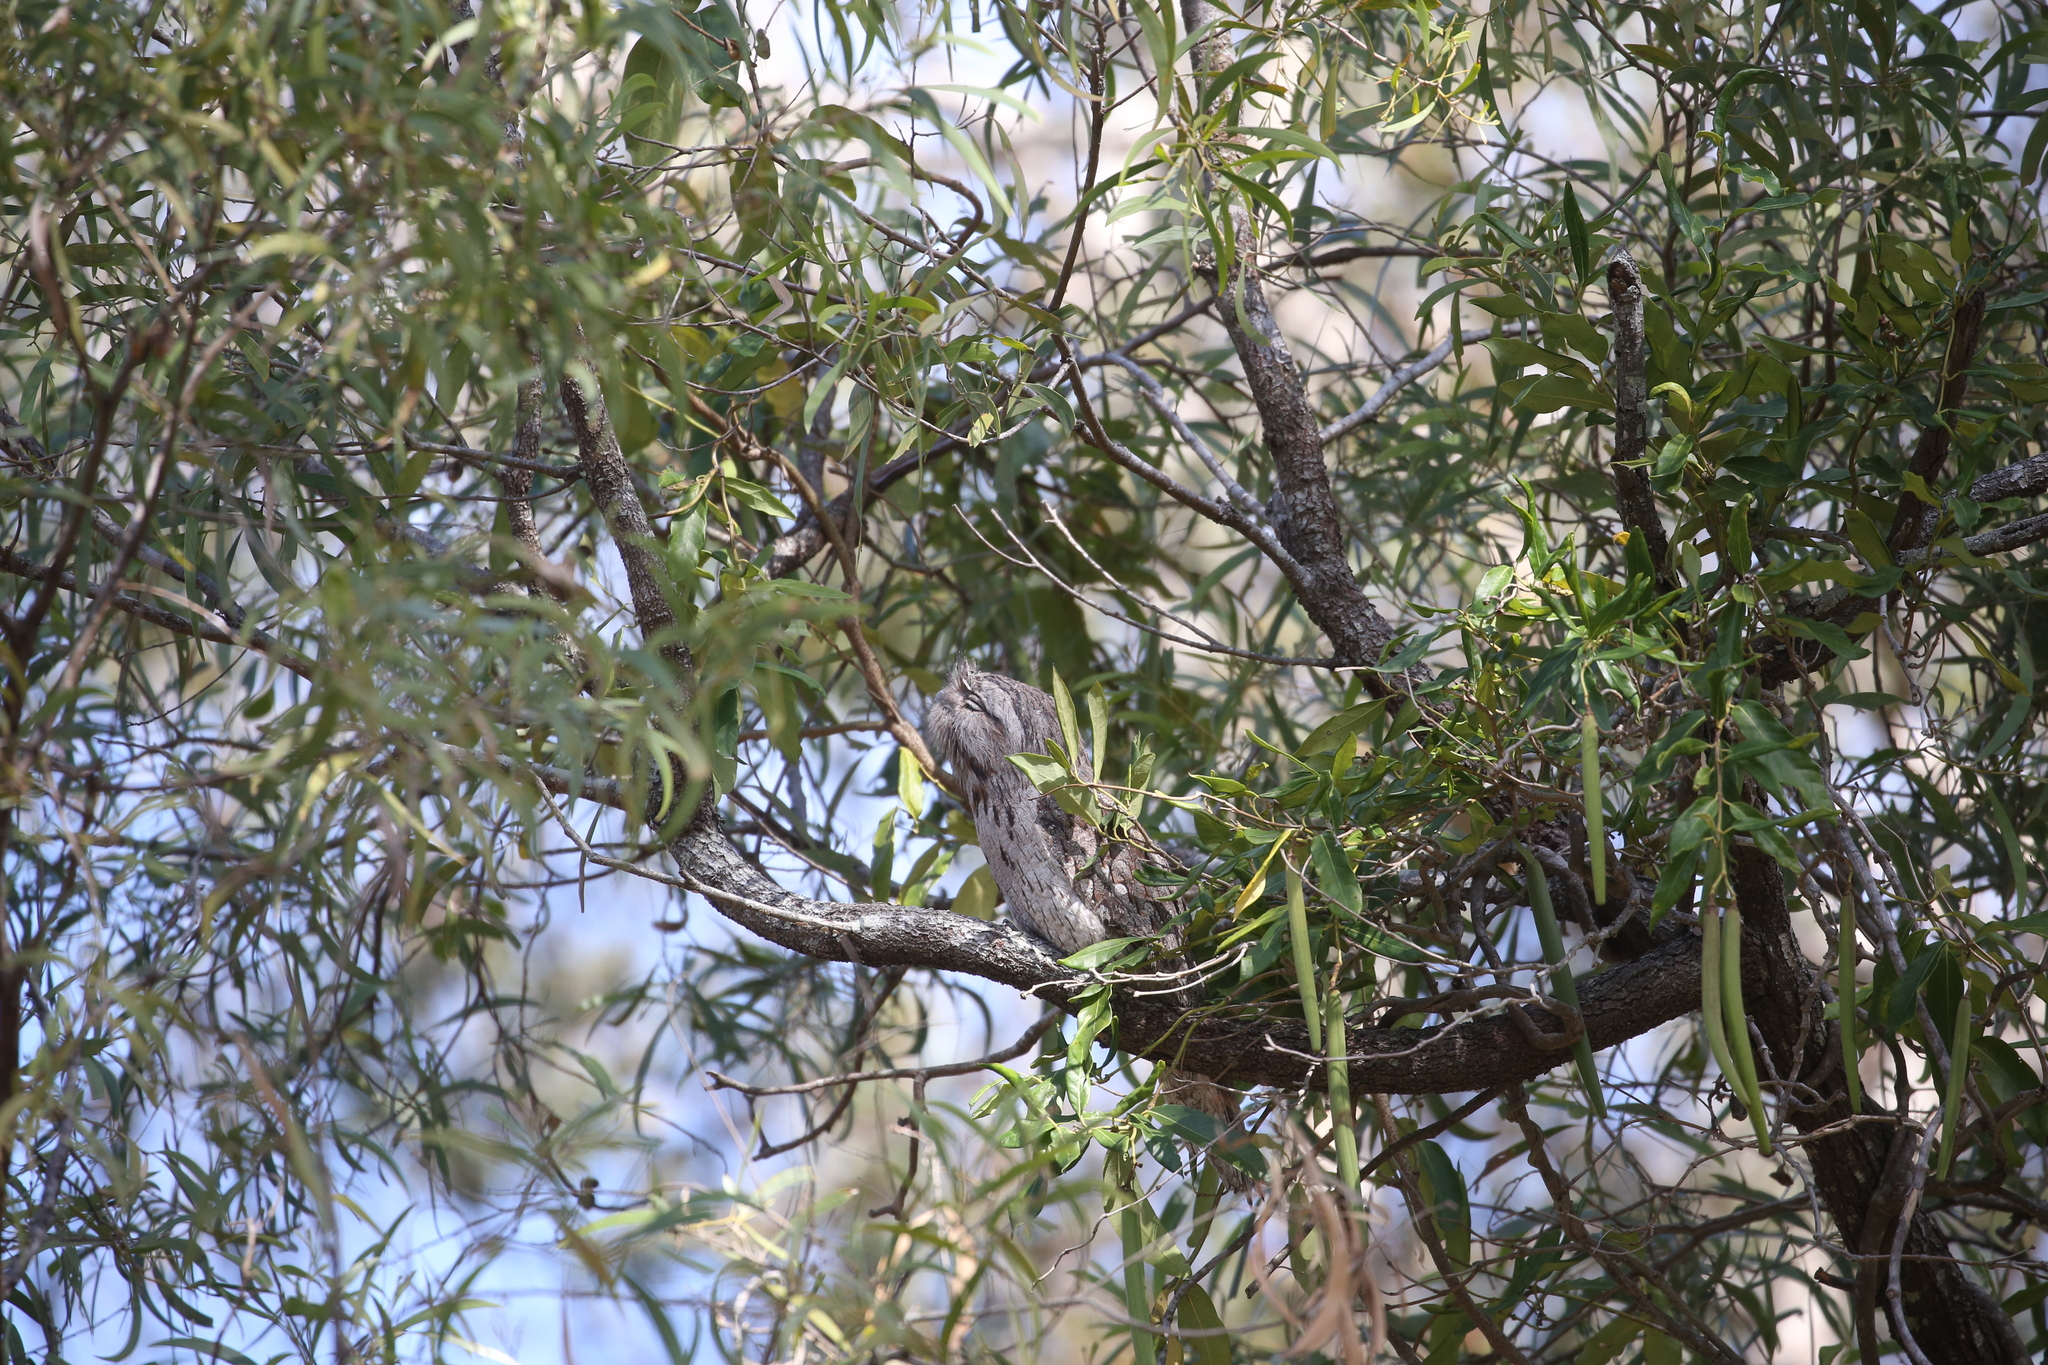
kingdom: Animalia
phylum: Chordata
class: Aves
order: Caprimulgiformes
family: Podargidae
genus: Podargus
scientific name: Podargus strigoides
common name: Tawny frogmouth
